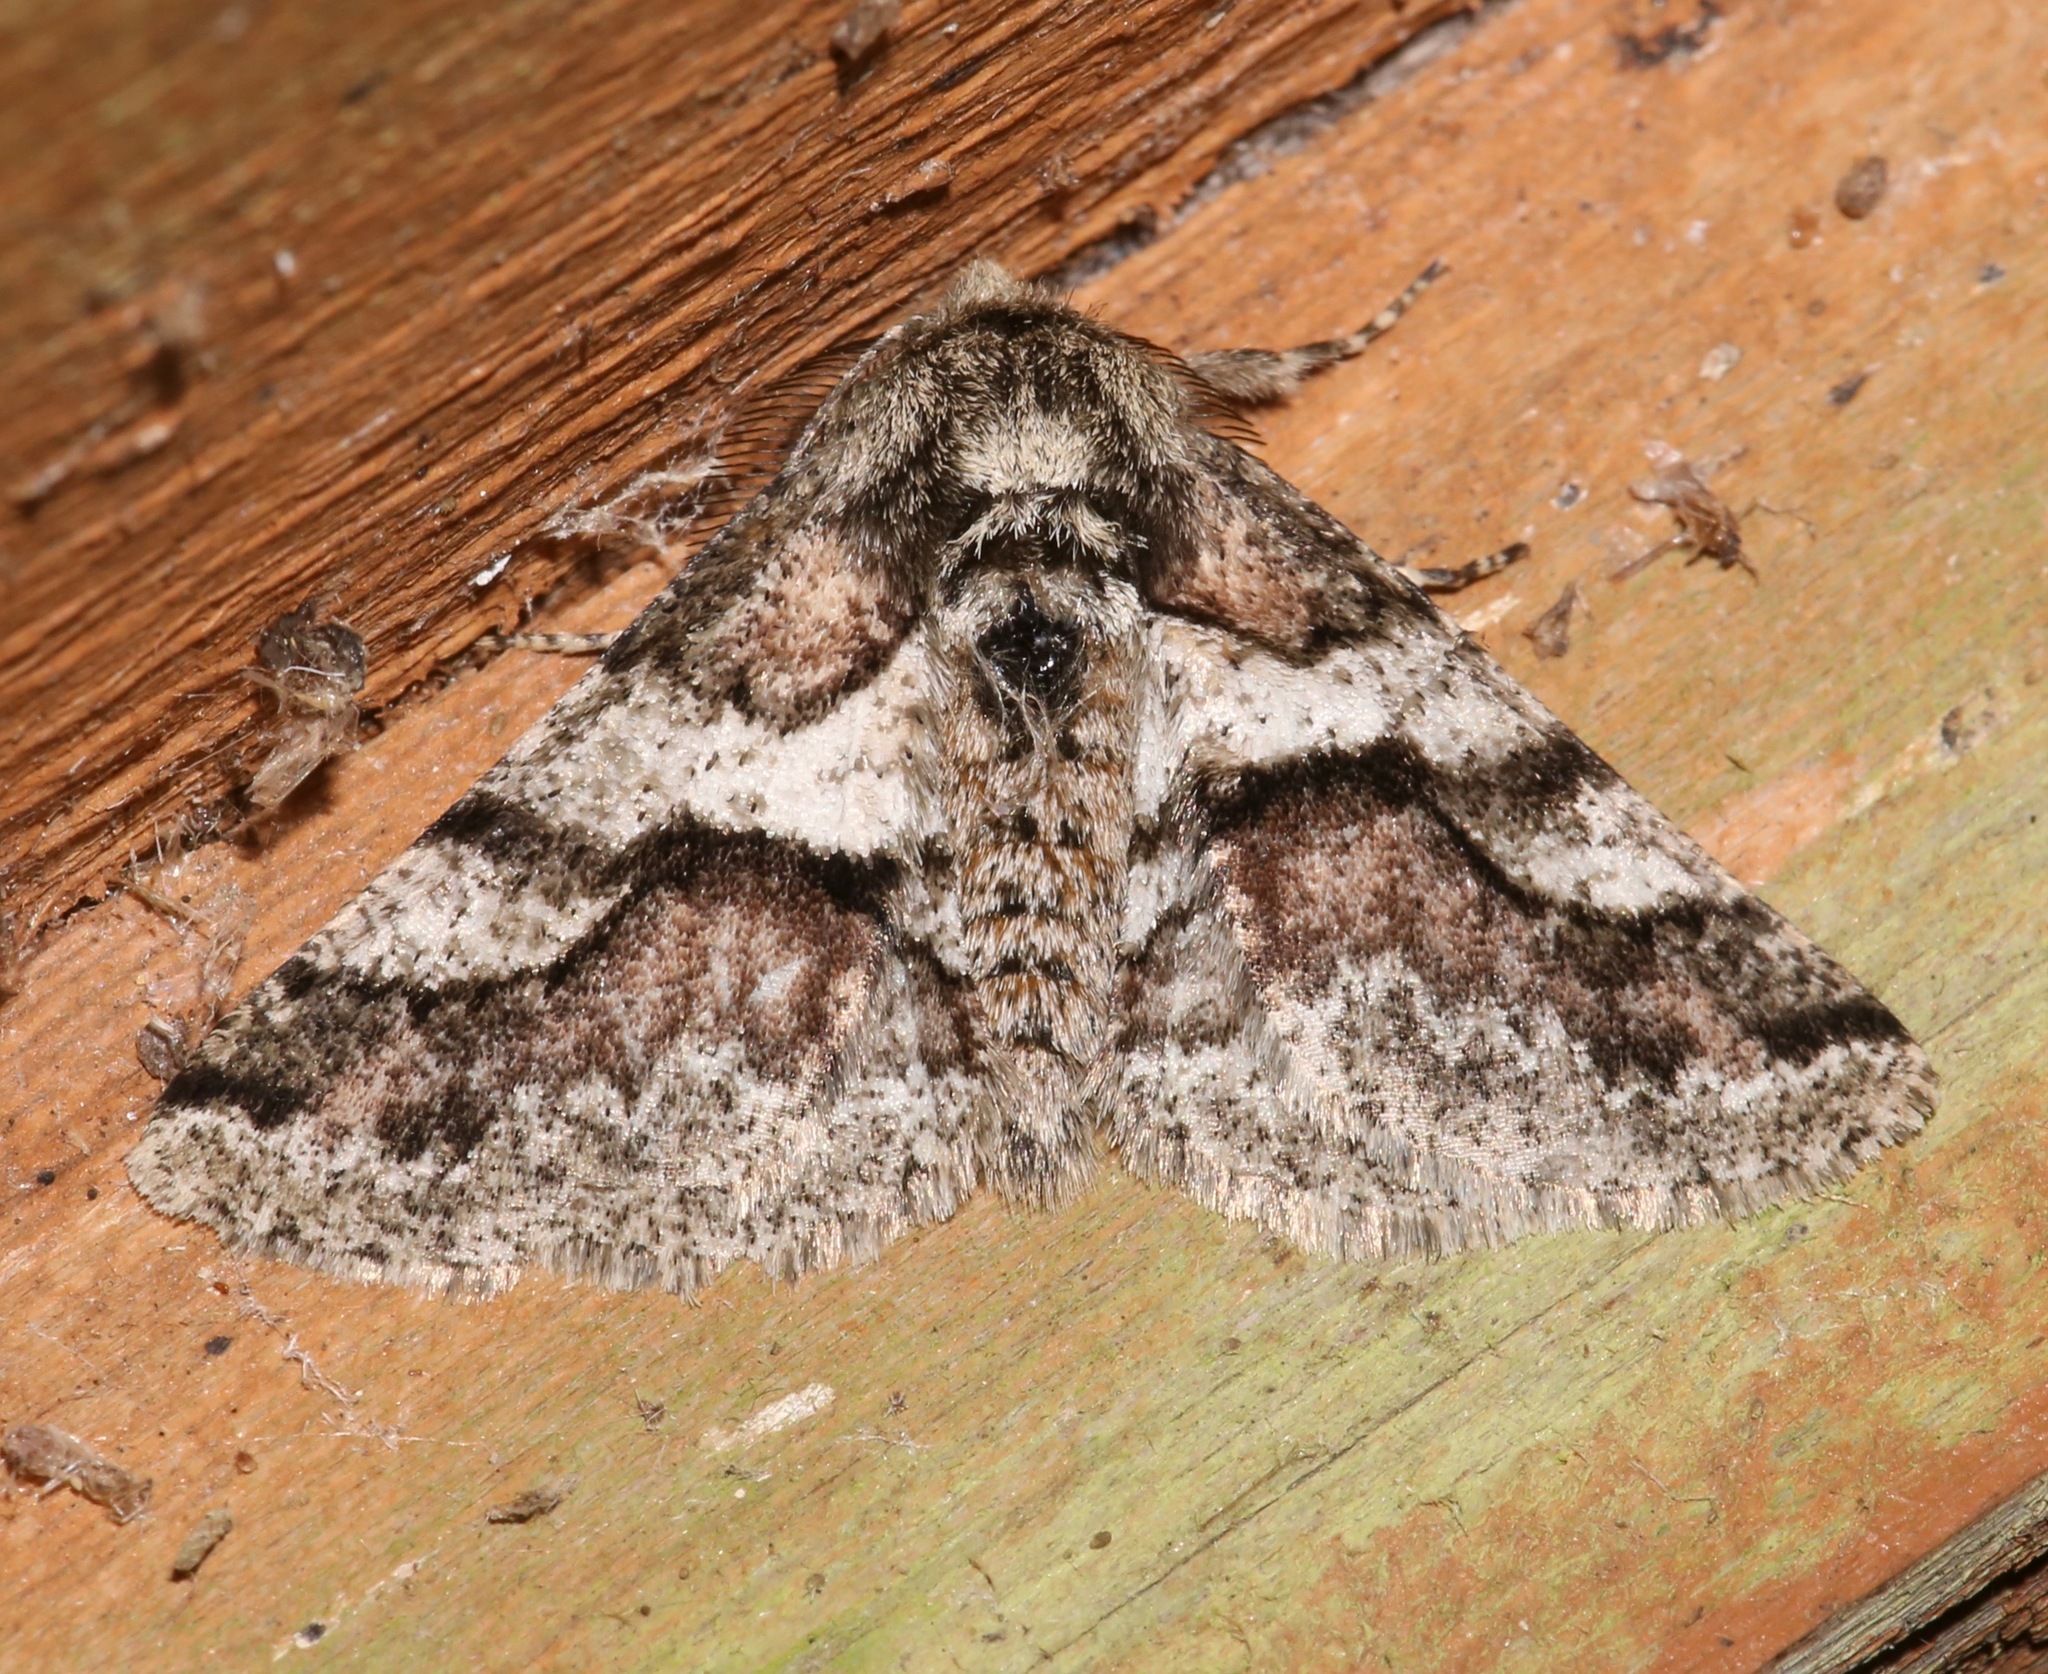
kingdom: Animalia
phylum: Arthropoda
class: Insecta
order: Lepidoptera
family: Geometridae
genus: Lycia
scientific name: Lycia ypsilon
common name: Wooly gray
